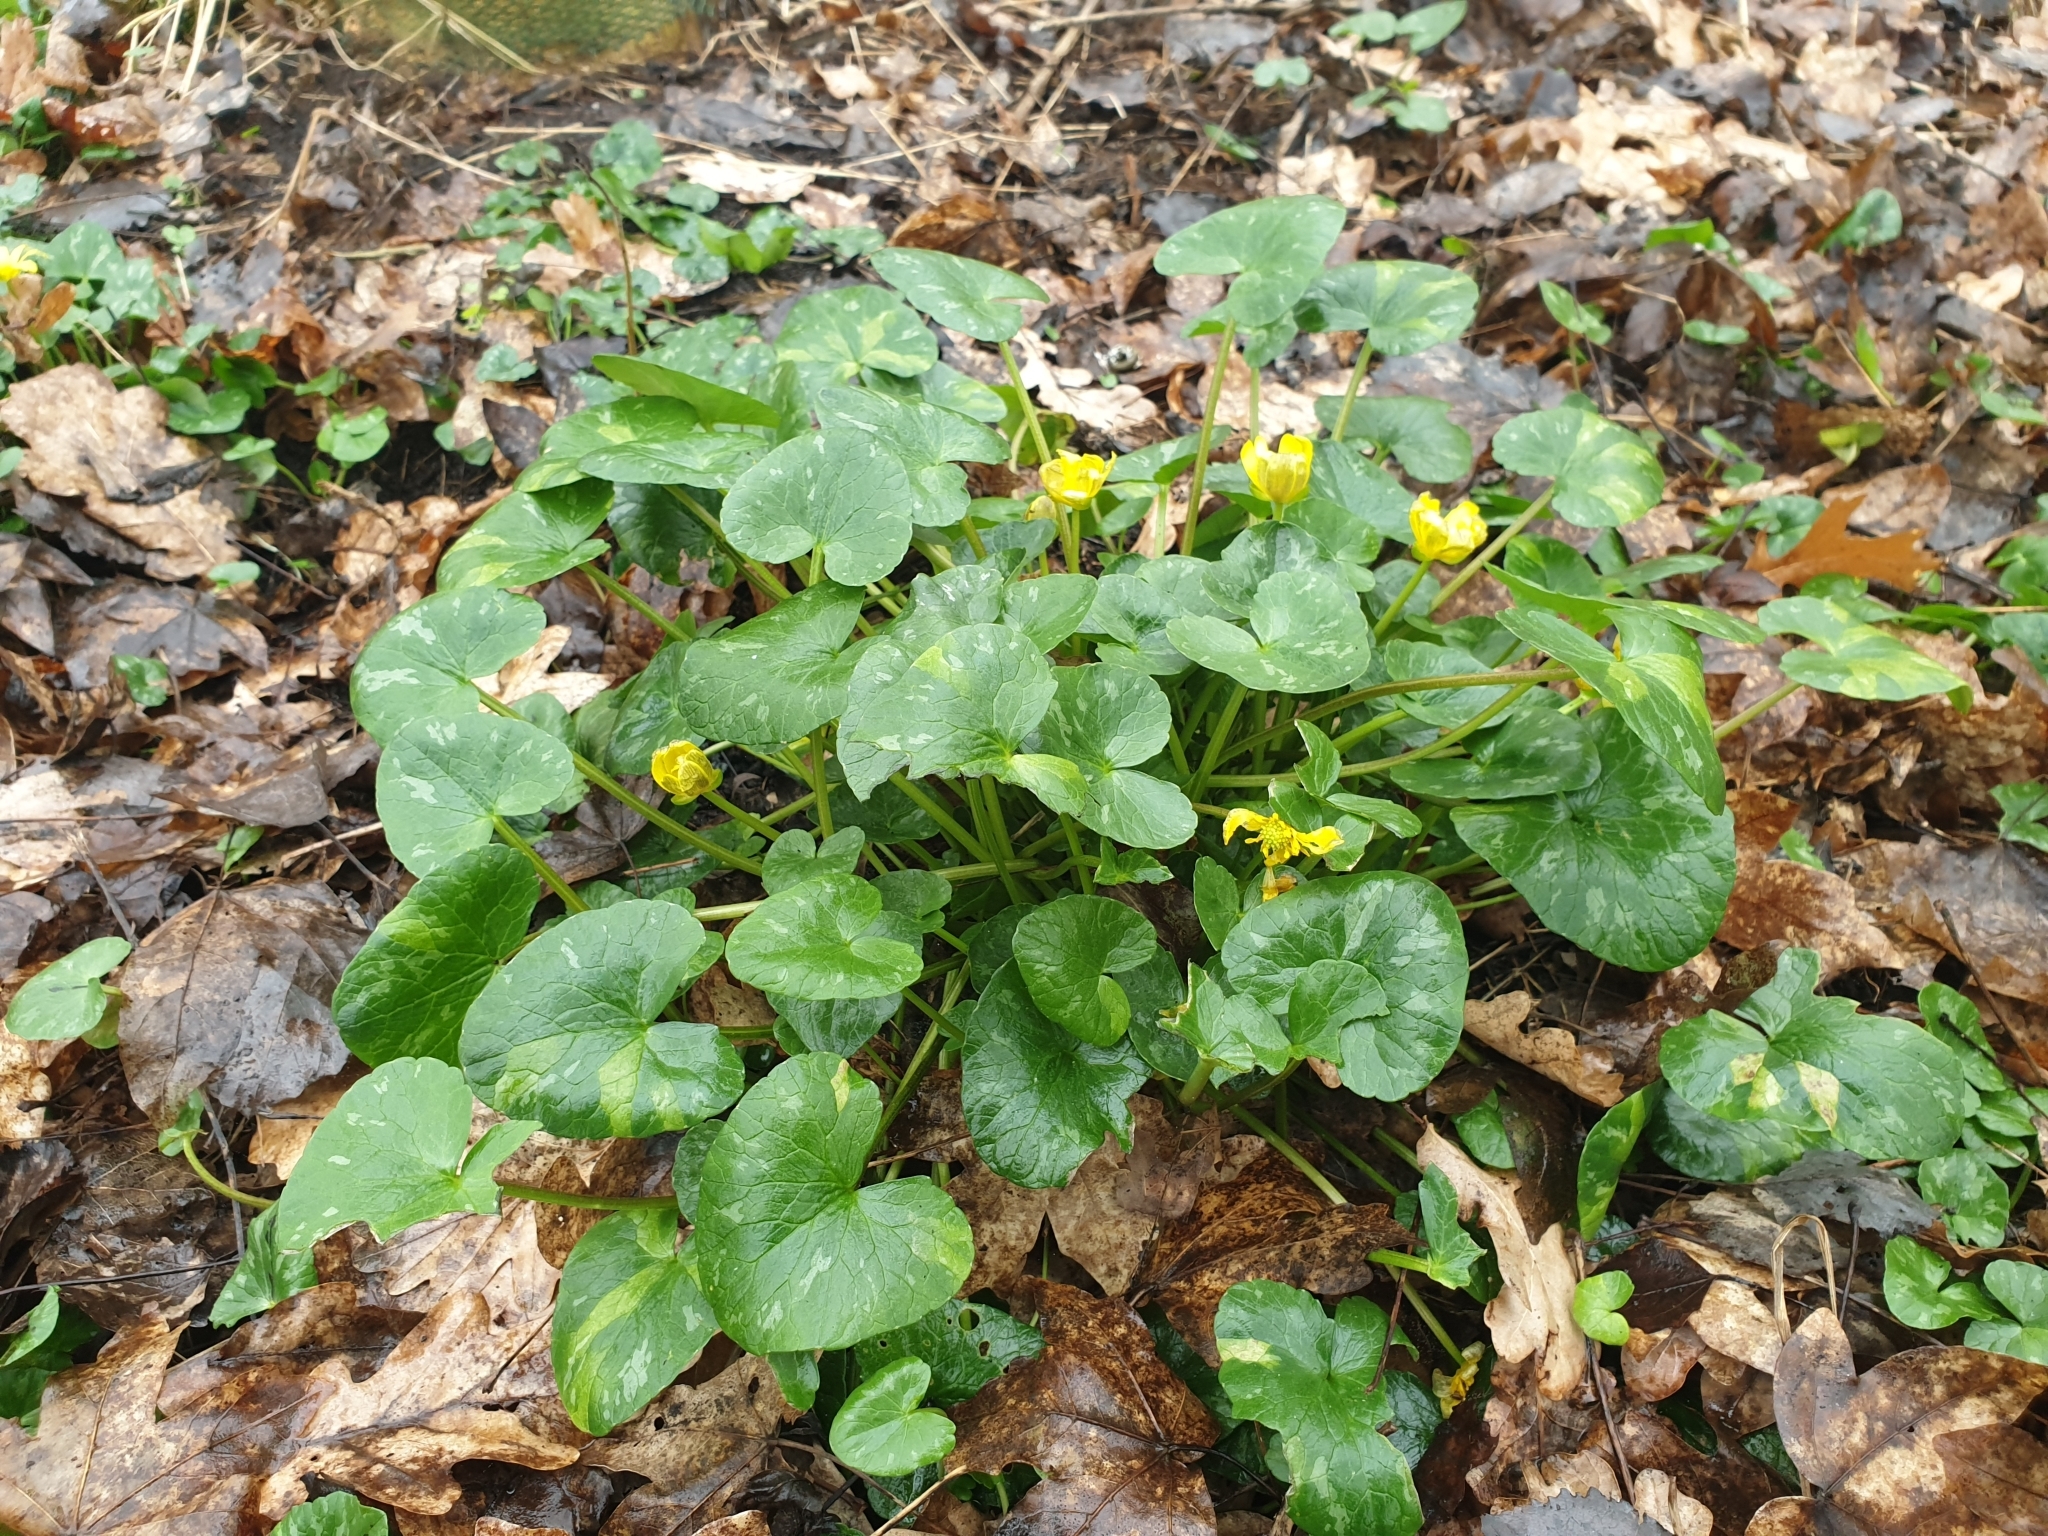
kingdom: Plantae
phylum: Tracheophyta
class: Magnoliopsida
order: Ranunculales
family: Ranunculaceae
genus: Ficaria
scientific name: Ficaria verna
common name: Lesser celandine
